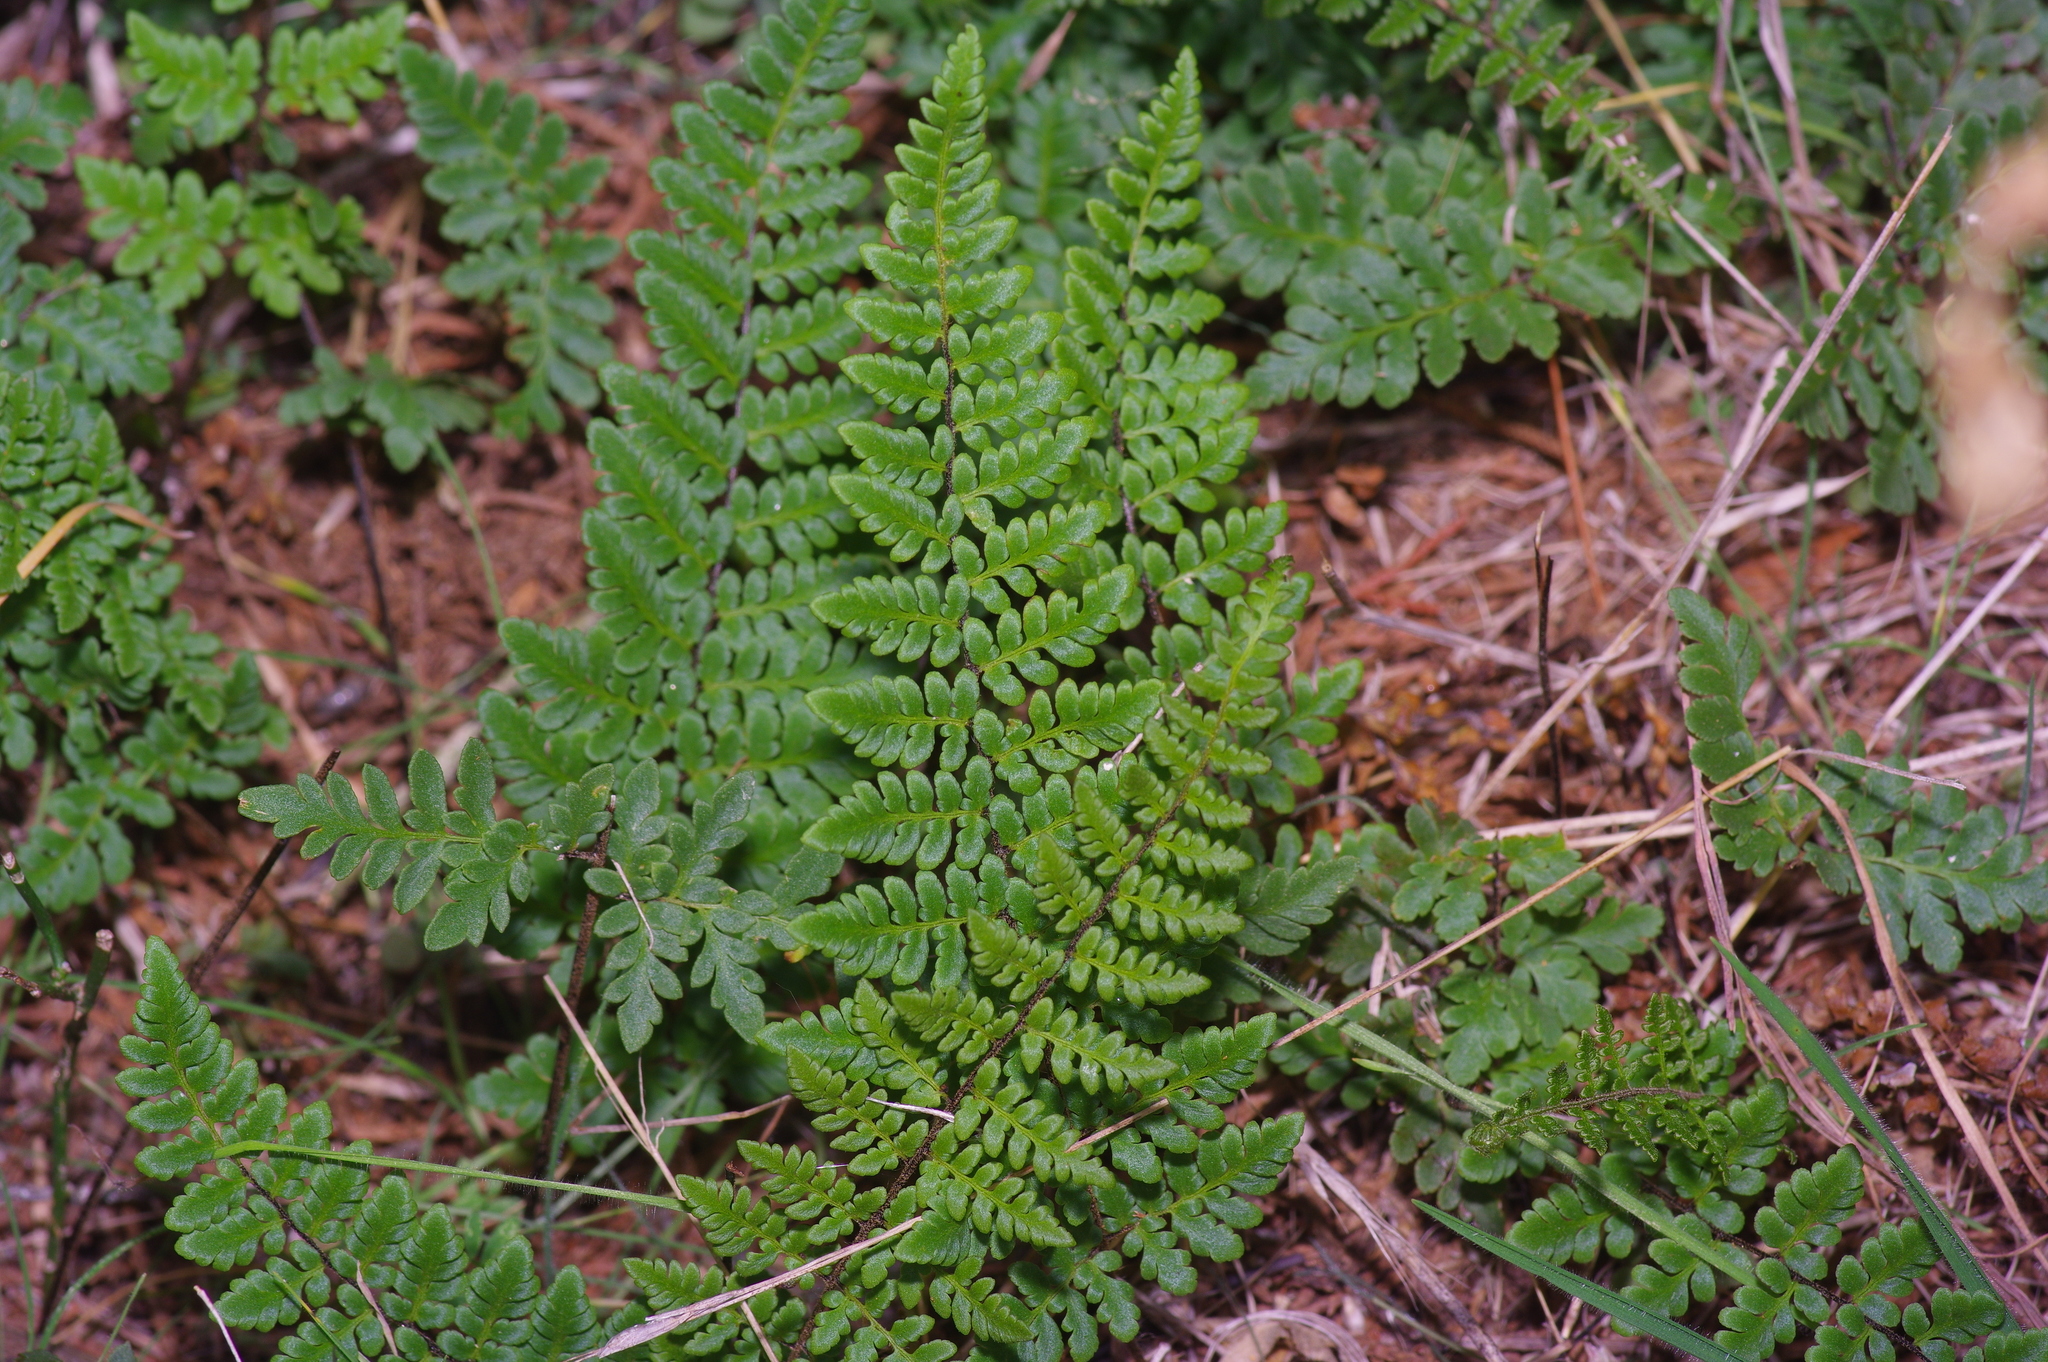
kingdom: Plantae
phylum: Tracheophyta
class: Polypodiopsida
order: Polypodiales
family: Pteridaceae
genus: Myriopteris
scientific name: Myriopteris alabamensis
